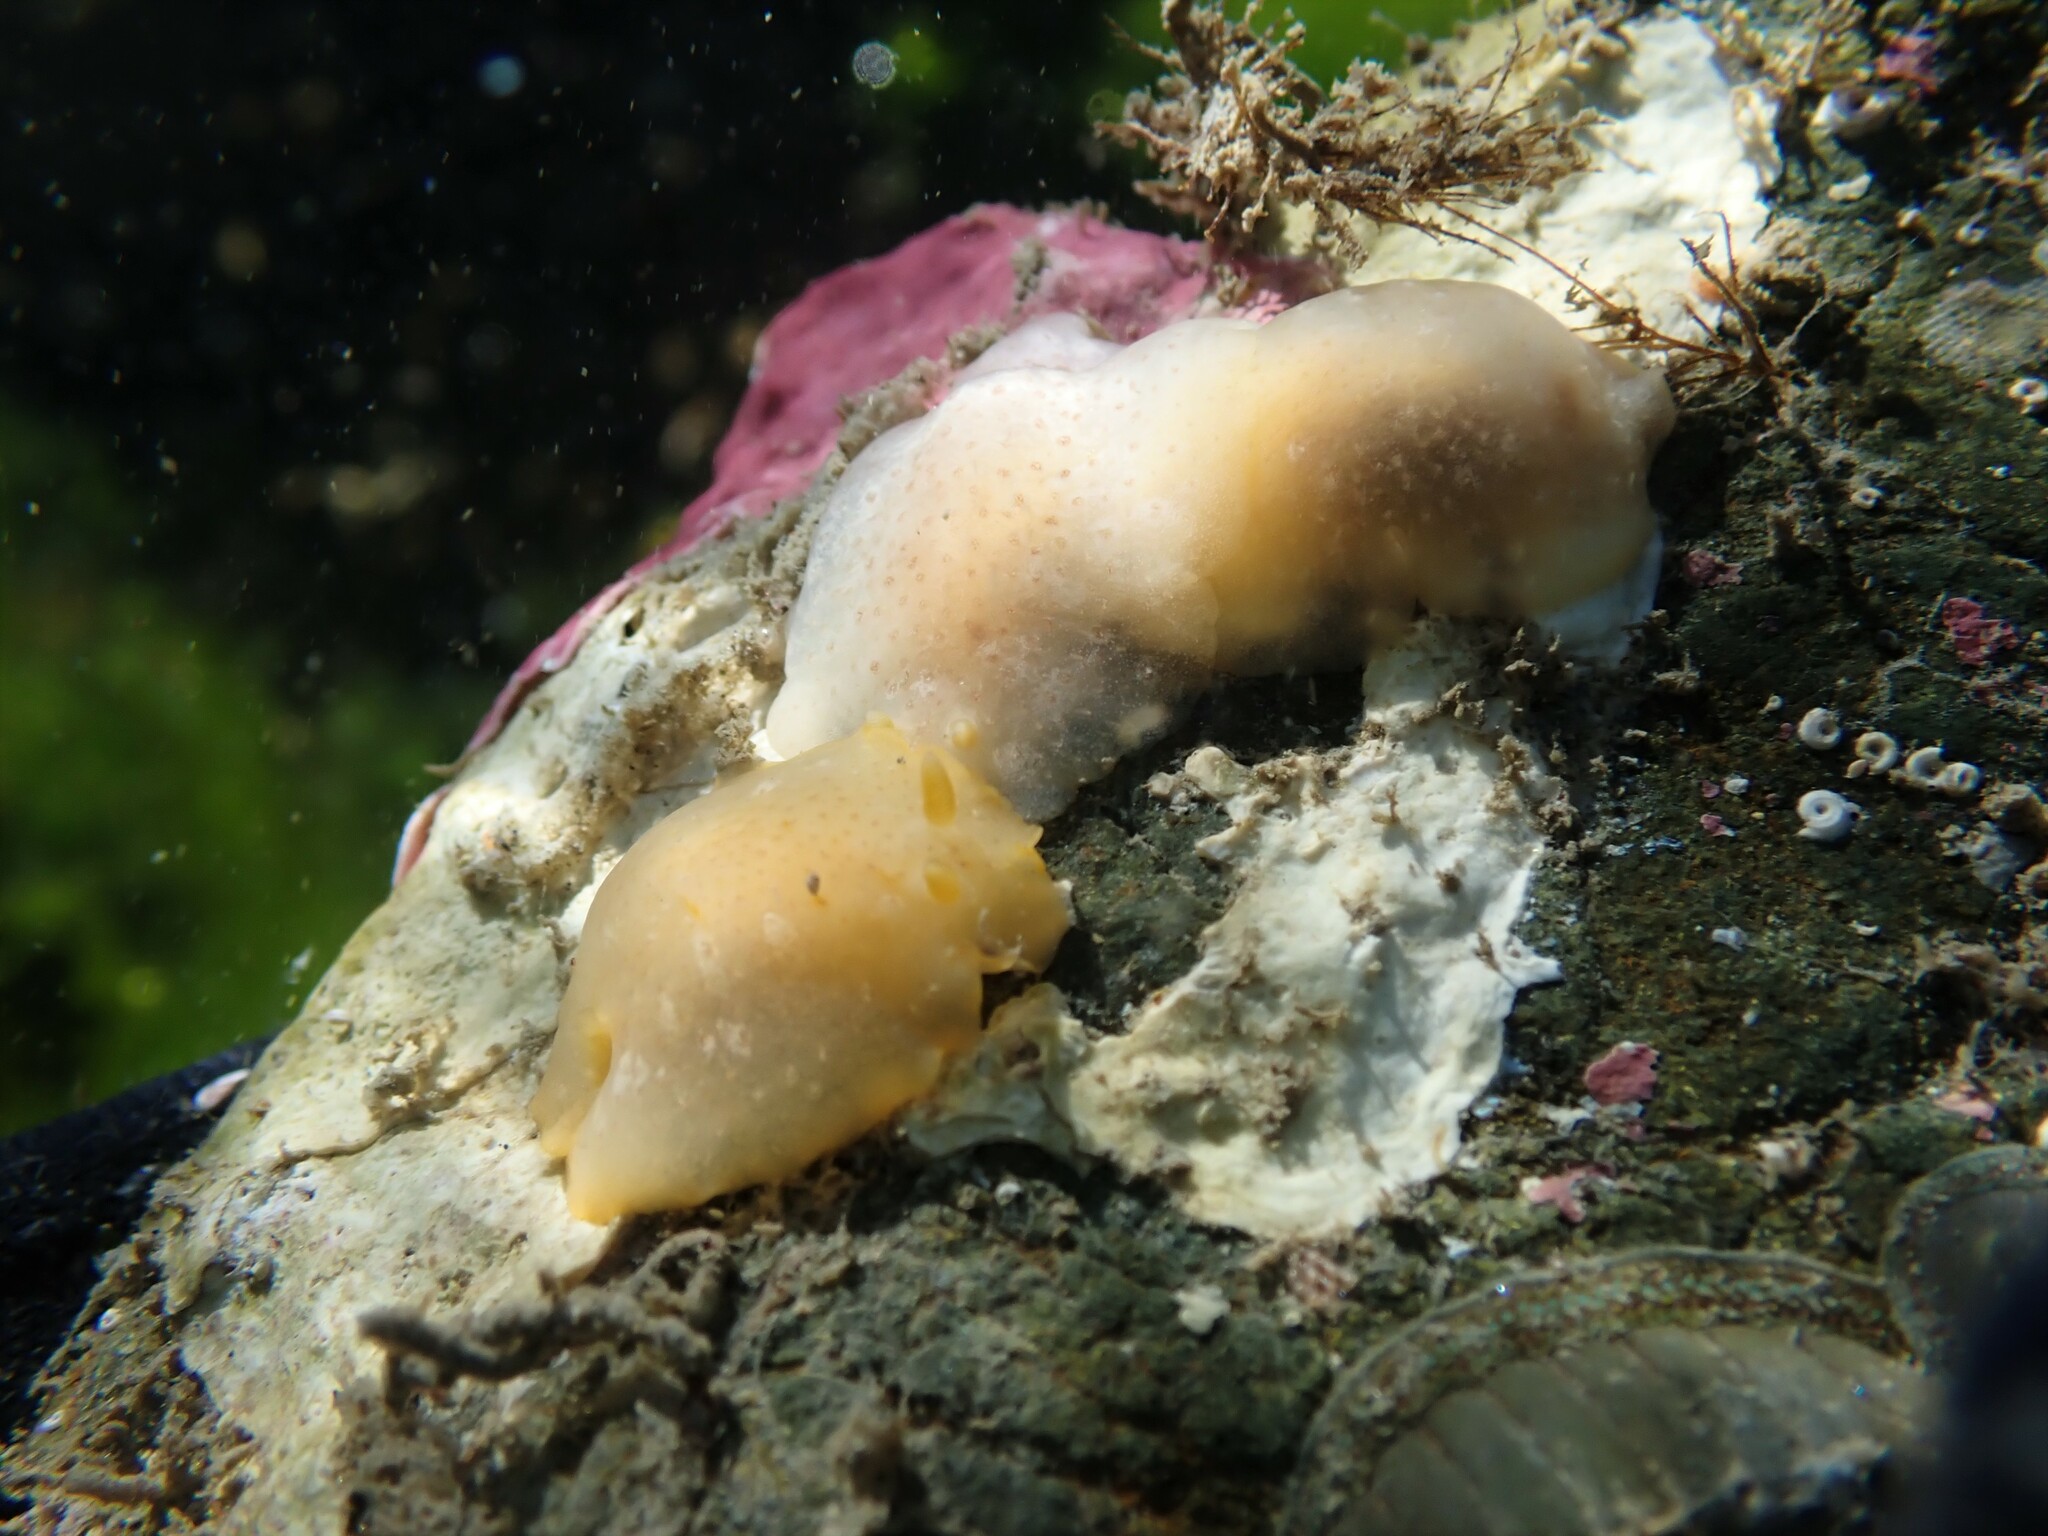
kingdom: Animalia
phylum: Mollusca
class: Gastropoda
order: Nudibranchia
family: Dendrodorididae
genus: Dendrodoris
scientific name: Dendrodoris citrina
